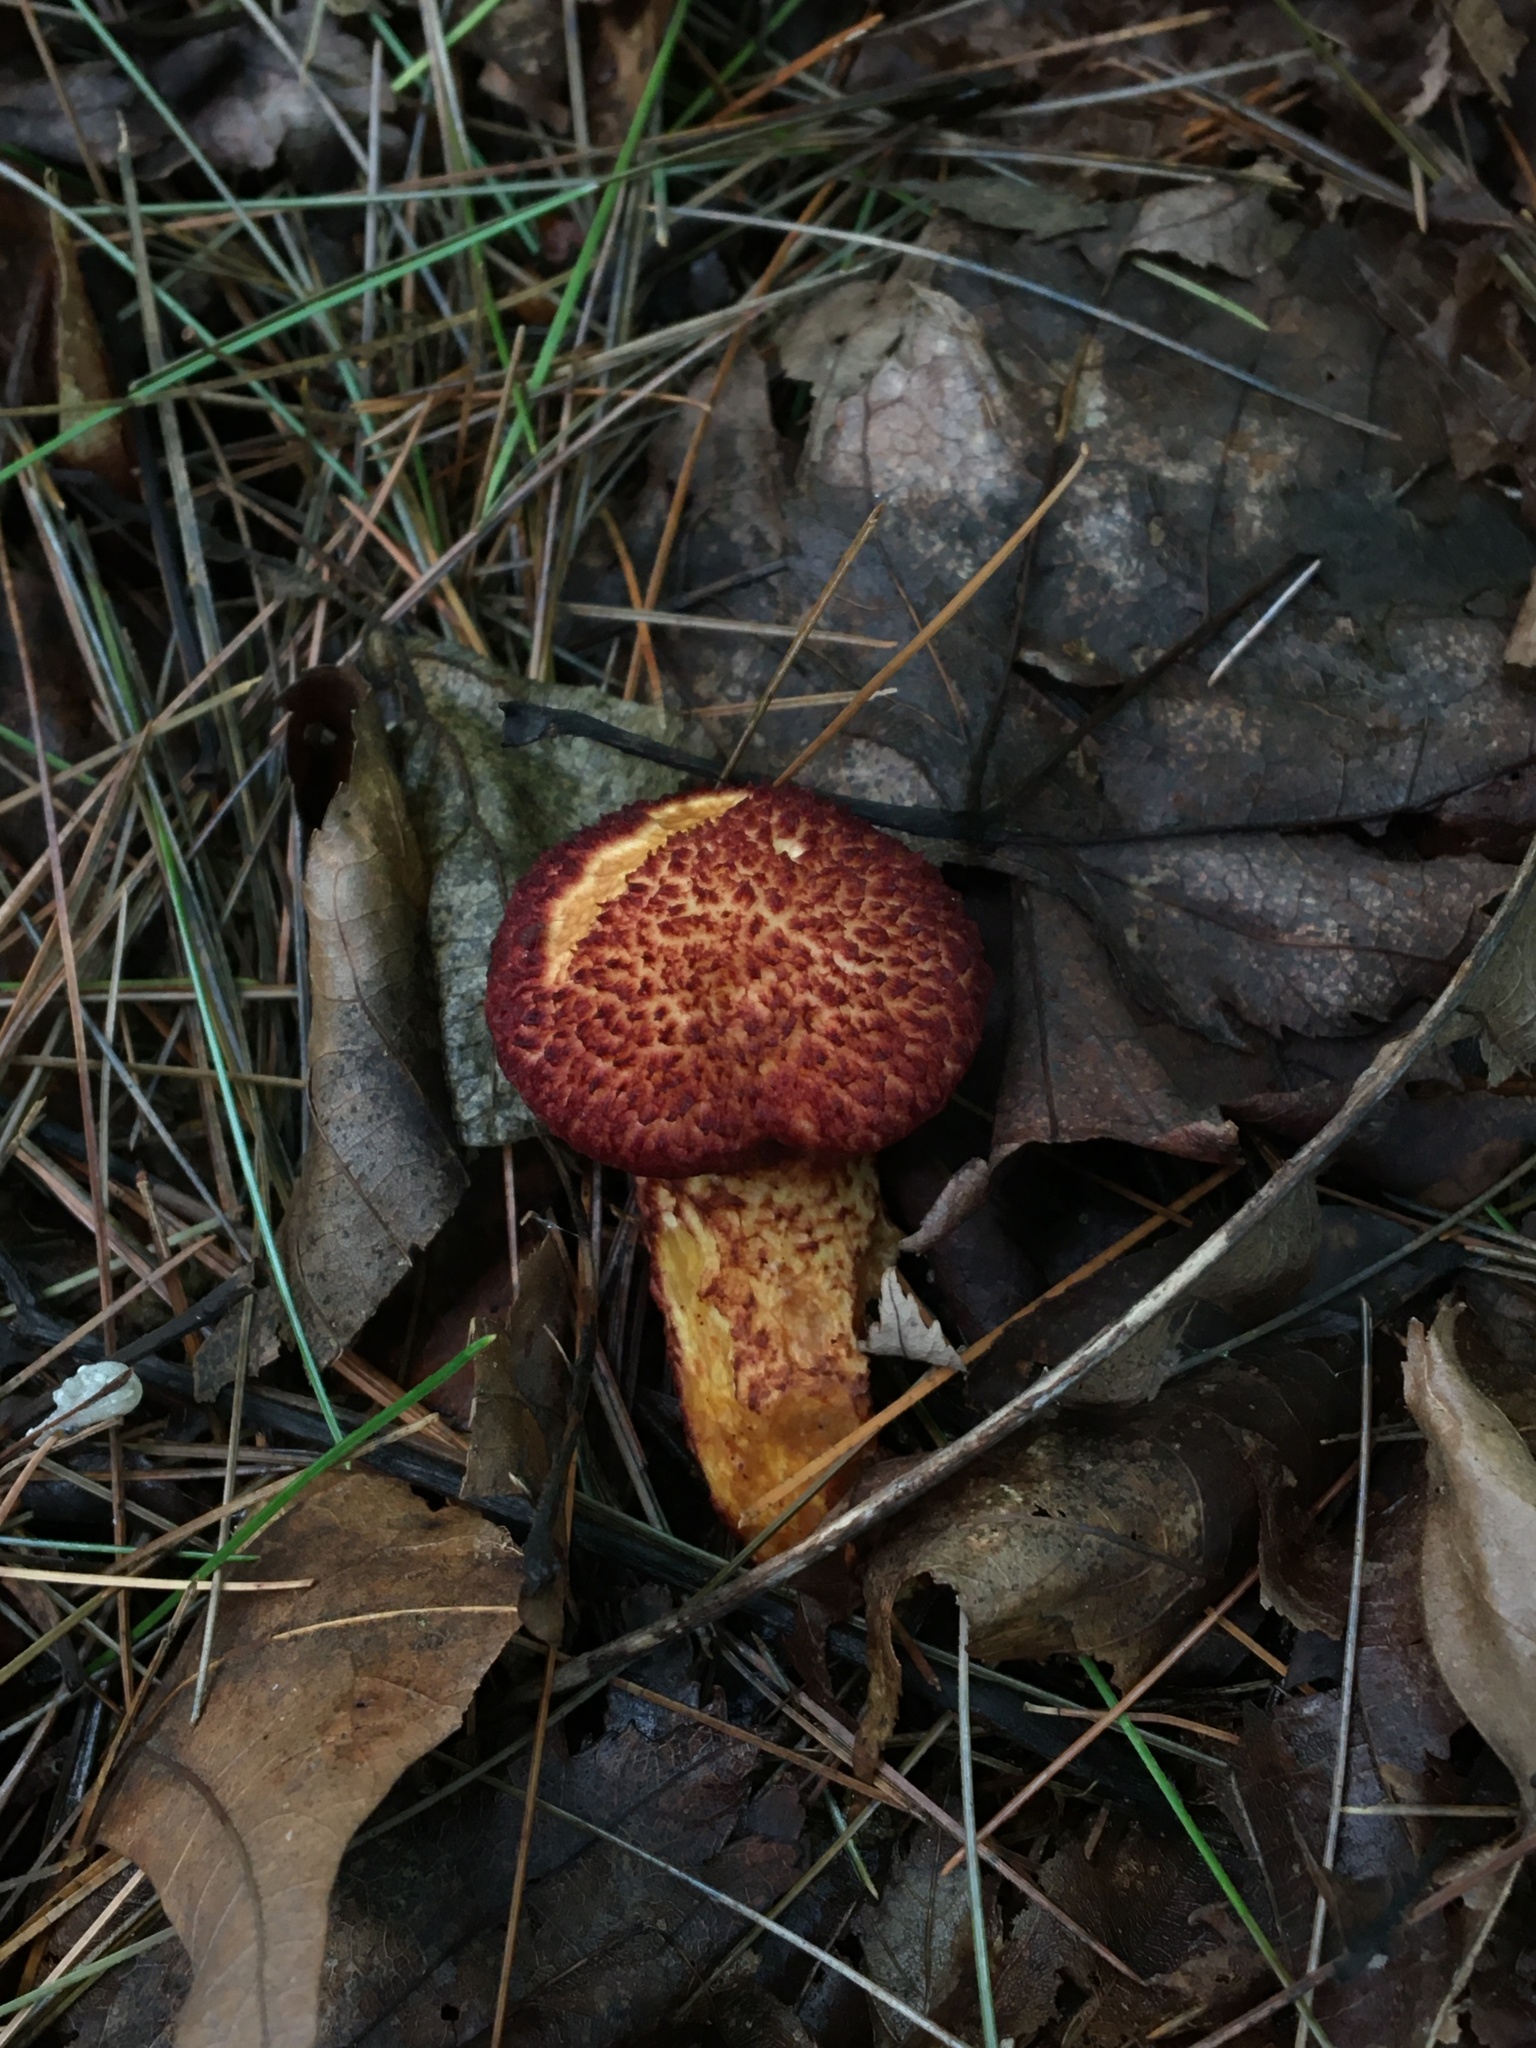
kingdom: Fungi
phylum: Basidiomycota
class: Agaricomycetes
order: Boletales
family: Suillaceae
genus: Suillus
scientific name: Suillus spraguei
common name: Painted suillus
